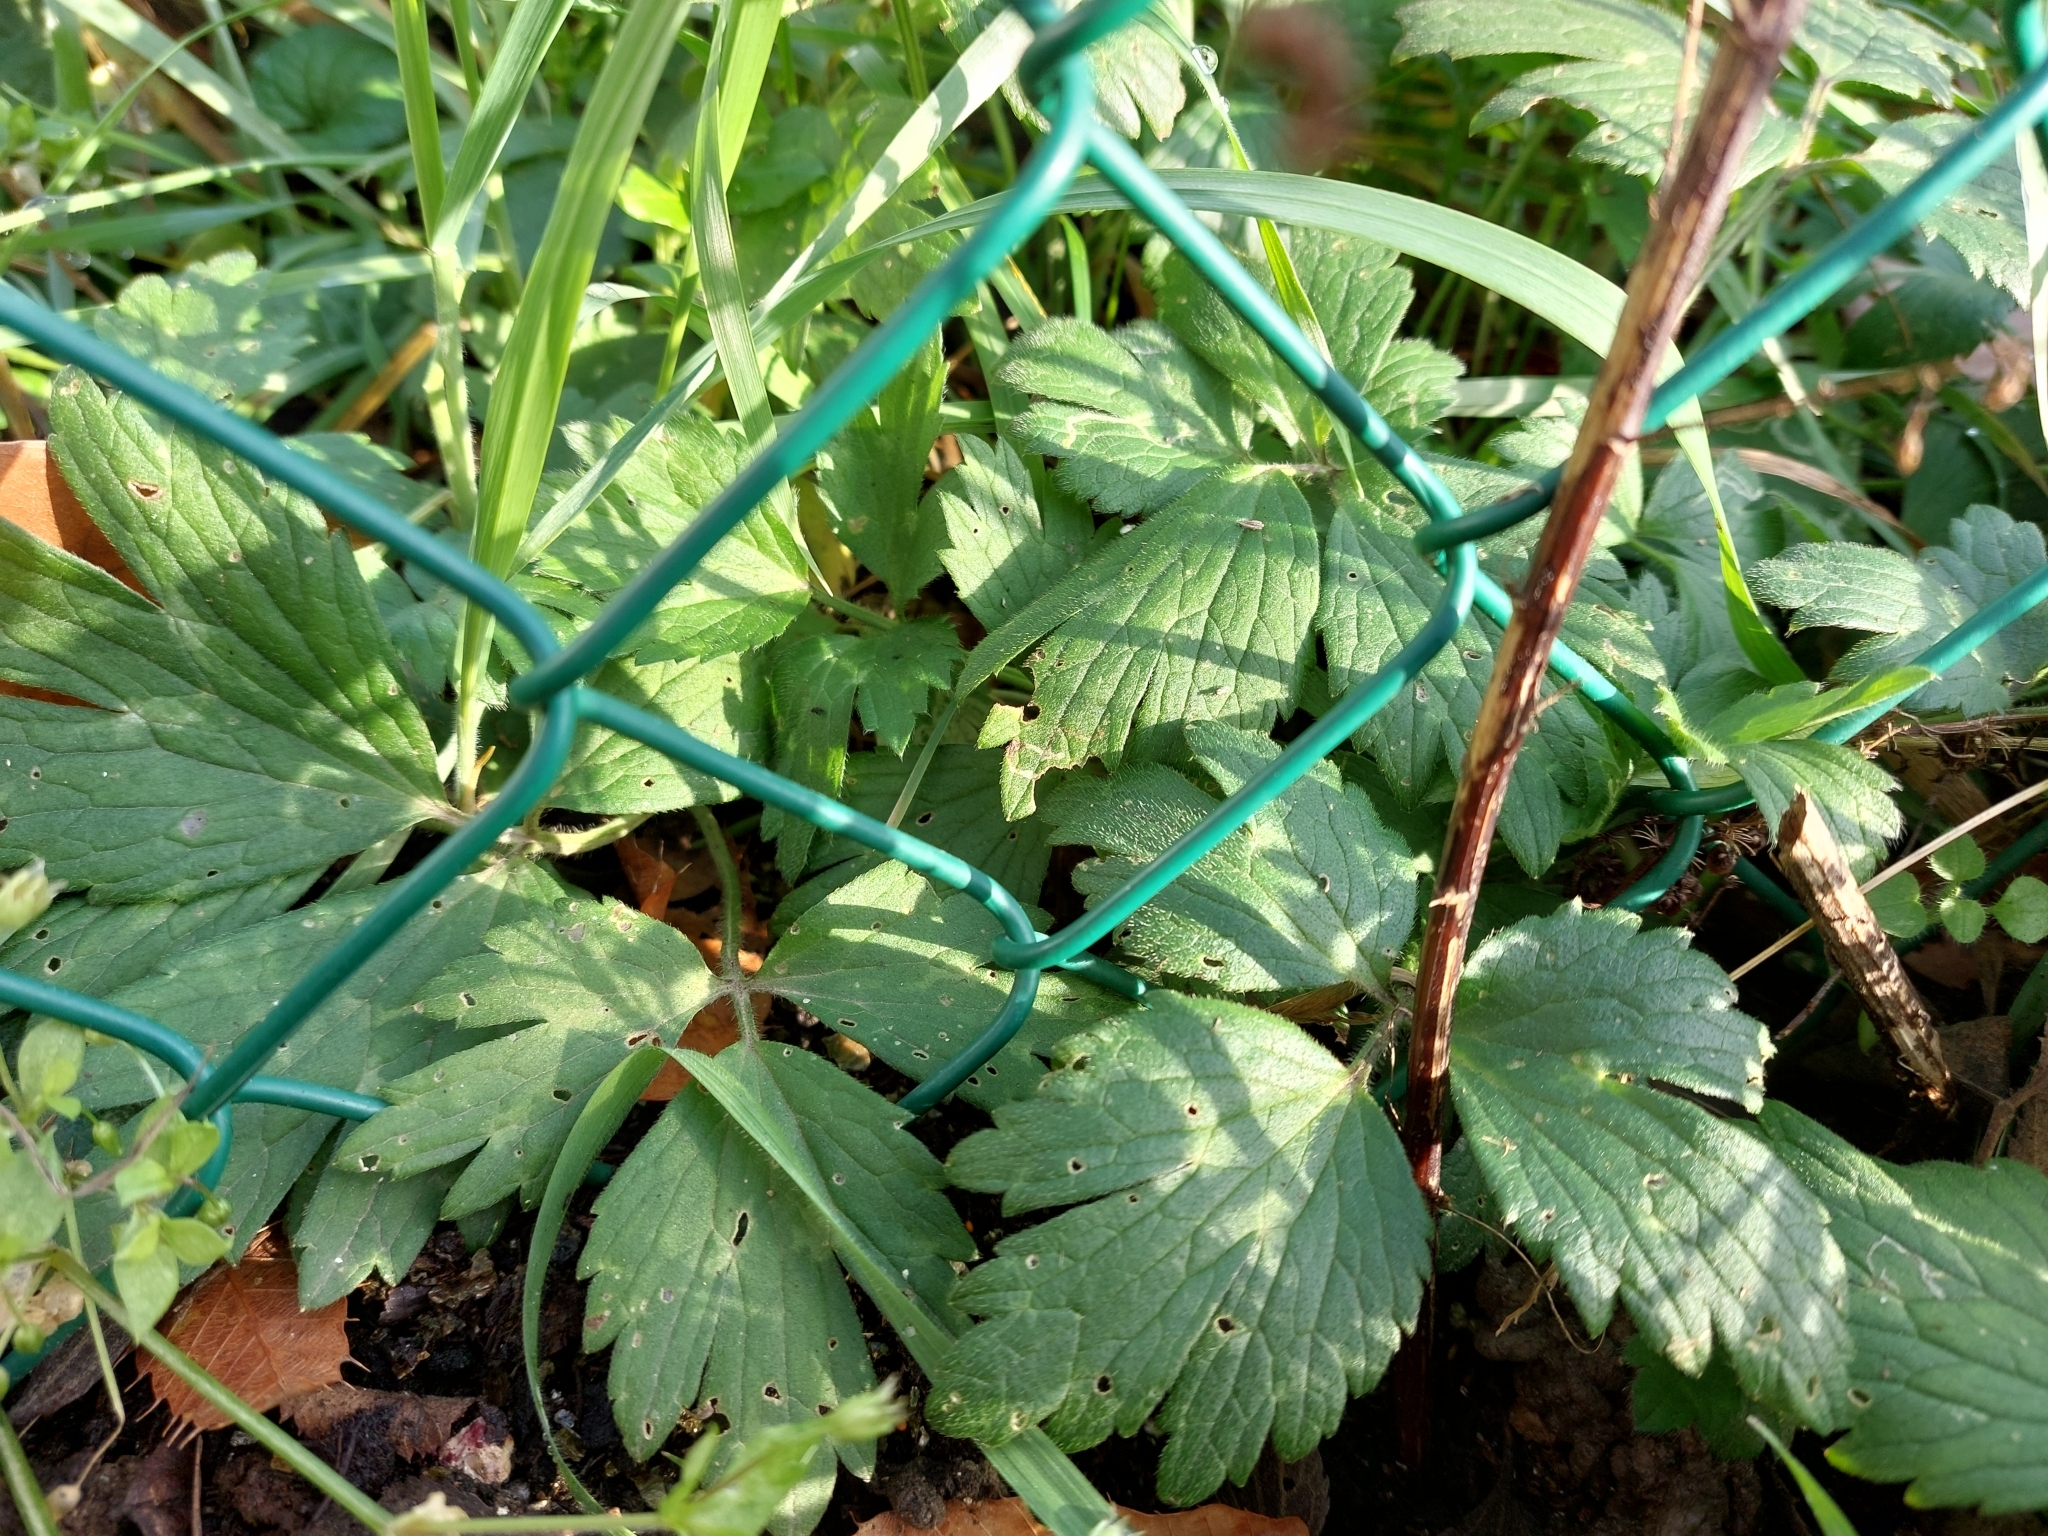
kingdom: Plantae
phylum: Tracheophyta
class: Magnoliopsida
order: Ranunculales
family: Ranunculaceae
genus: Ranunculus
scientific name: Ranunculus repens
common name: Creeping buttercup
